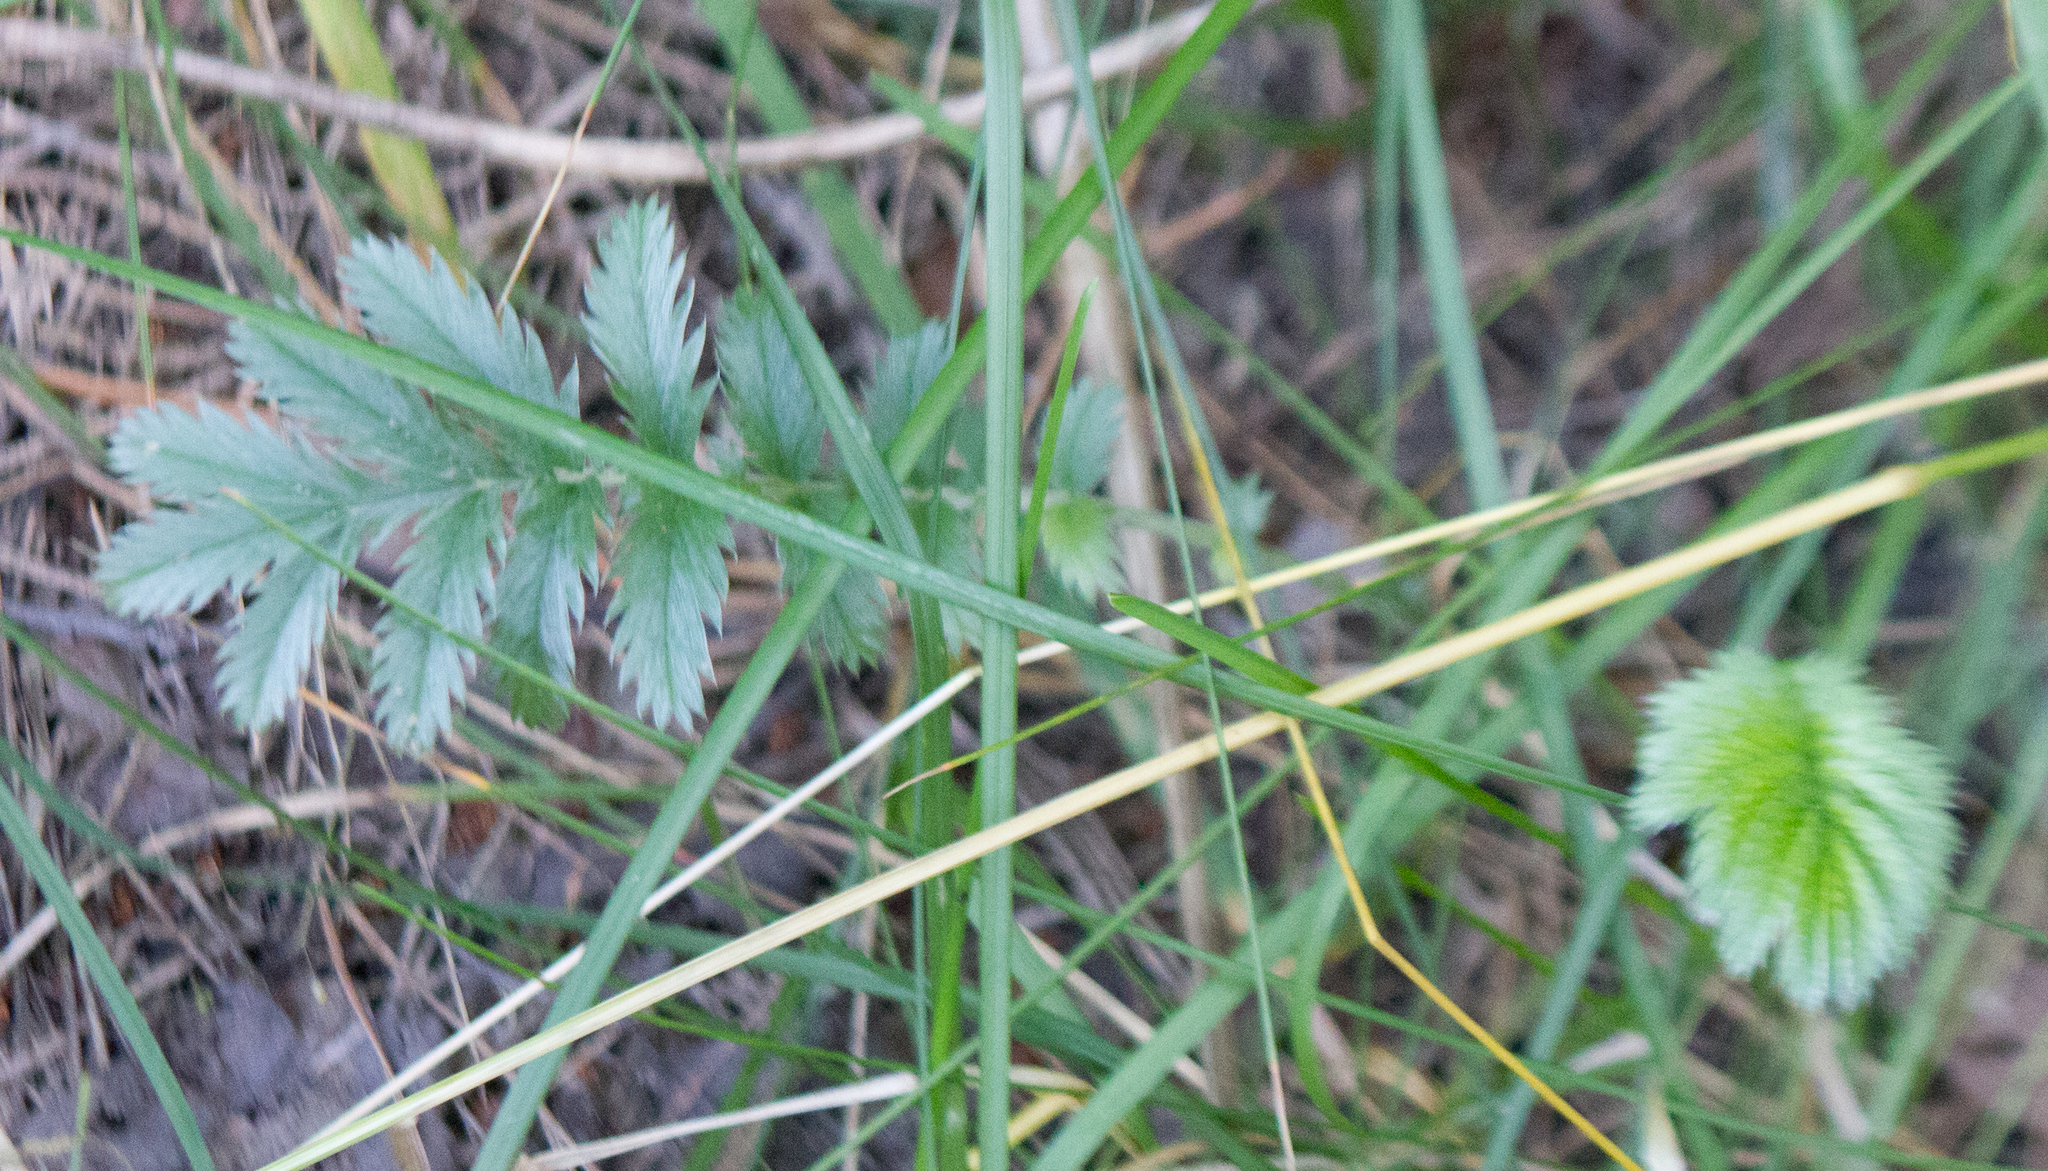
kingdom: Plantae
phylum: Tracheophyta
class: Magnoliopsida
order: Rosales
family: Rosaceae
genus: Argentina
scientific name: Argentina anserina
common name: Common silverweed
